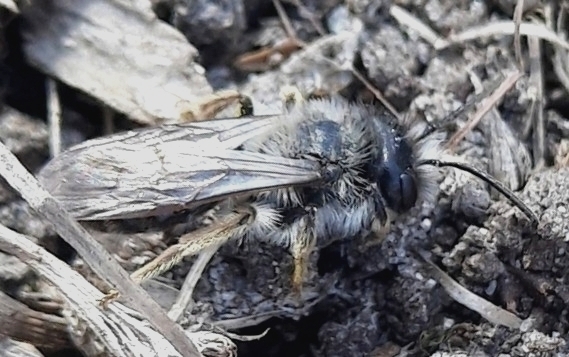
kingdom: Animalia
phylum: Arthropoda
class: Insecta
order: Hymenoptera
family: Andrenidae
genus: Andrena
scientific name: Andrena vaga
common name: Grey-backed mining bee
